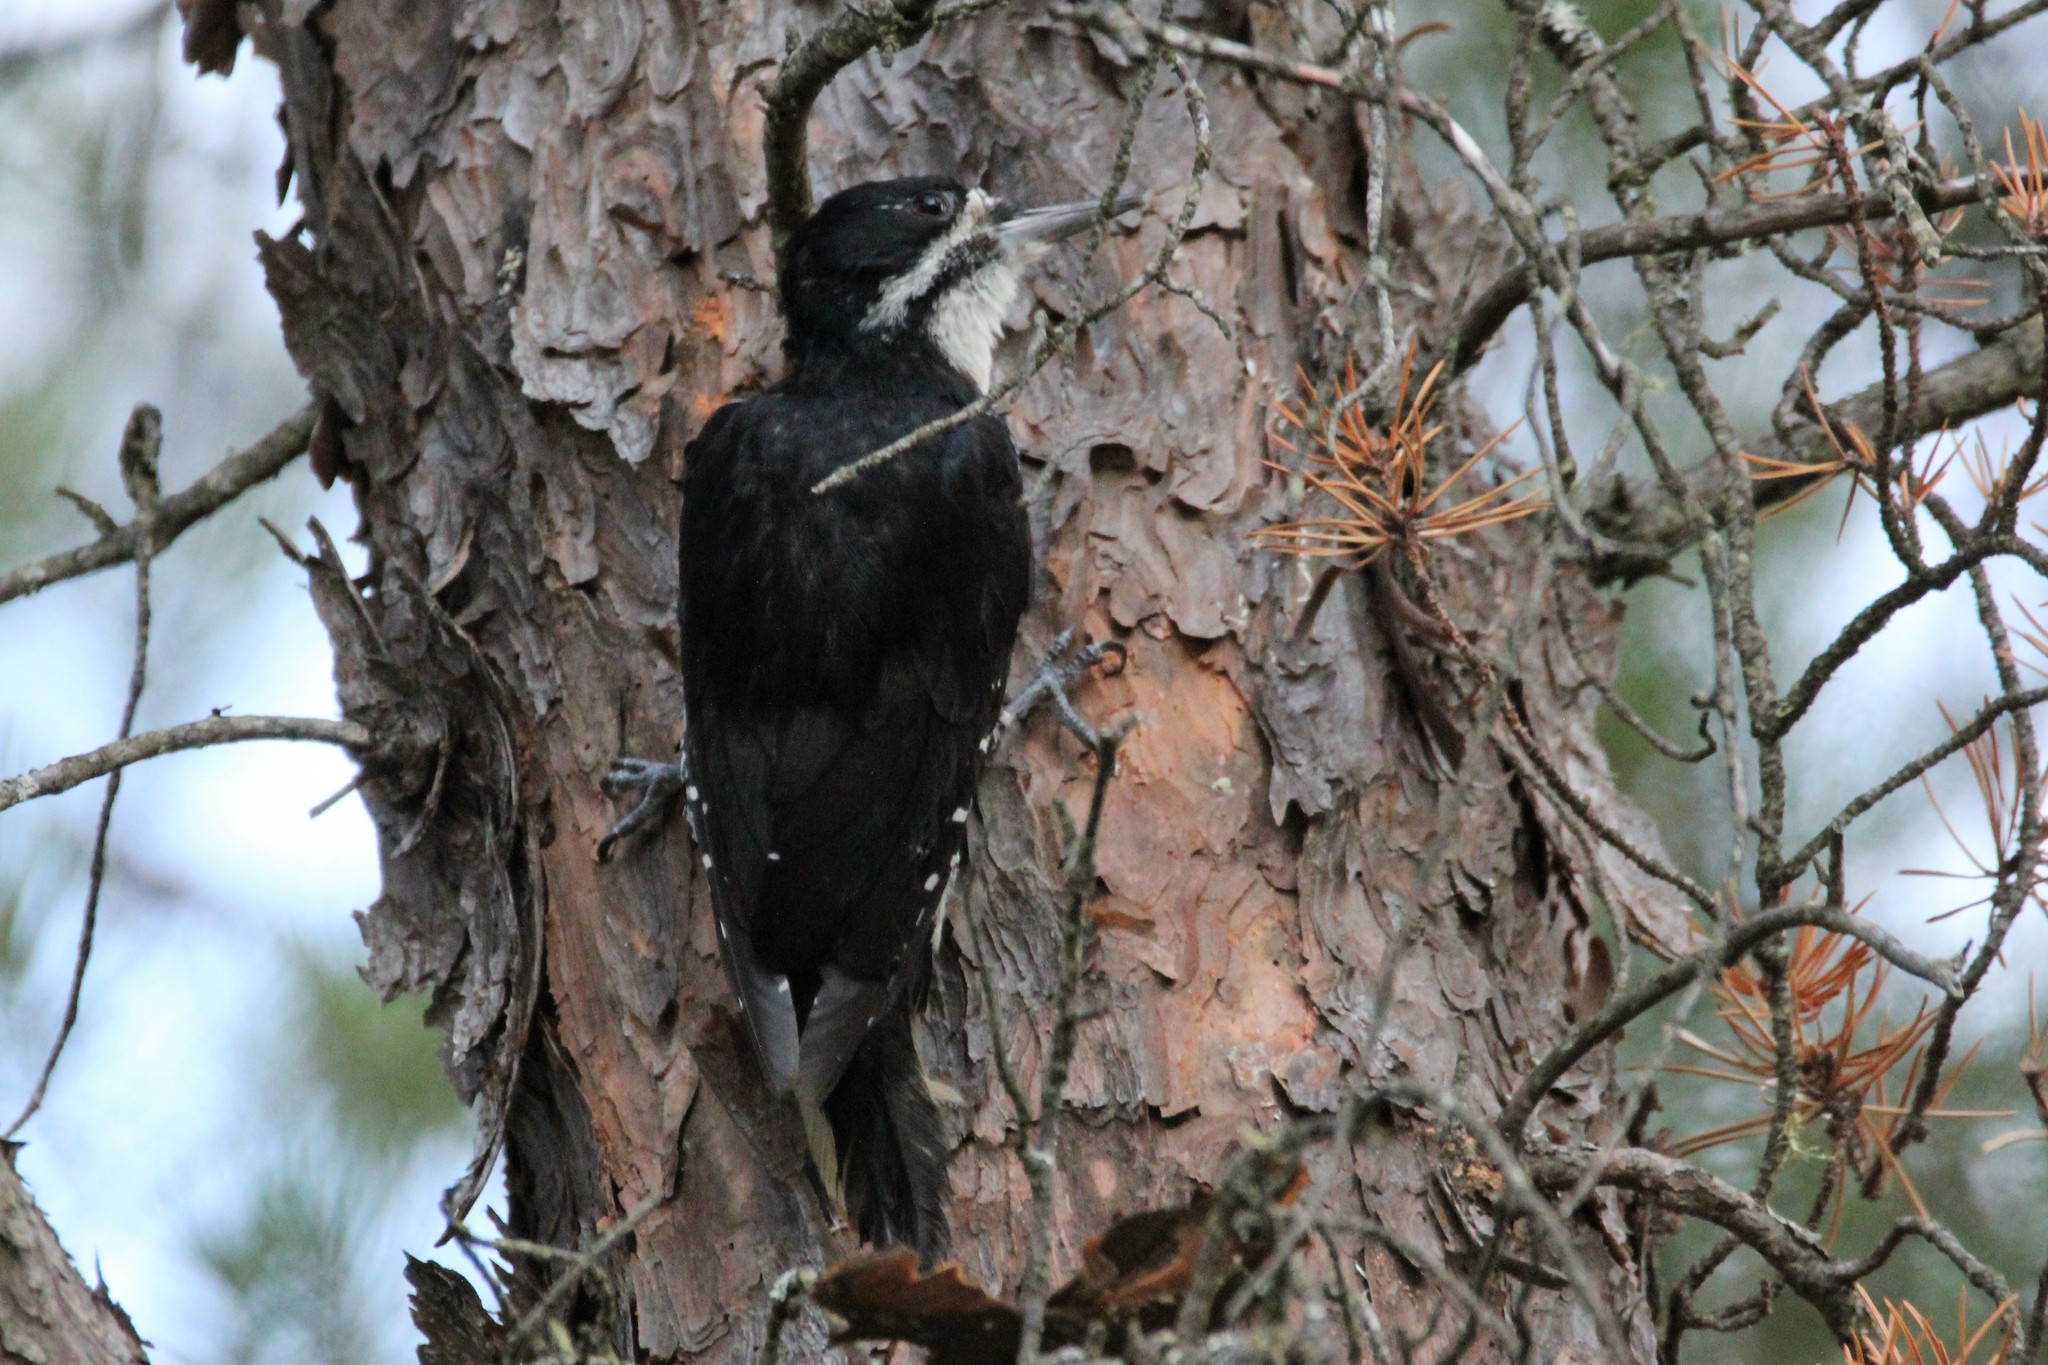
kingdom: Animalia
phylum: Chordata
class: Aves
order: Piciformes
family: Picidae
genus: Picoides
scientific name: Picoides arcticus
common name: Black-backed woodpecker
